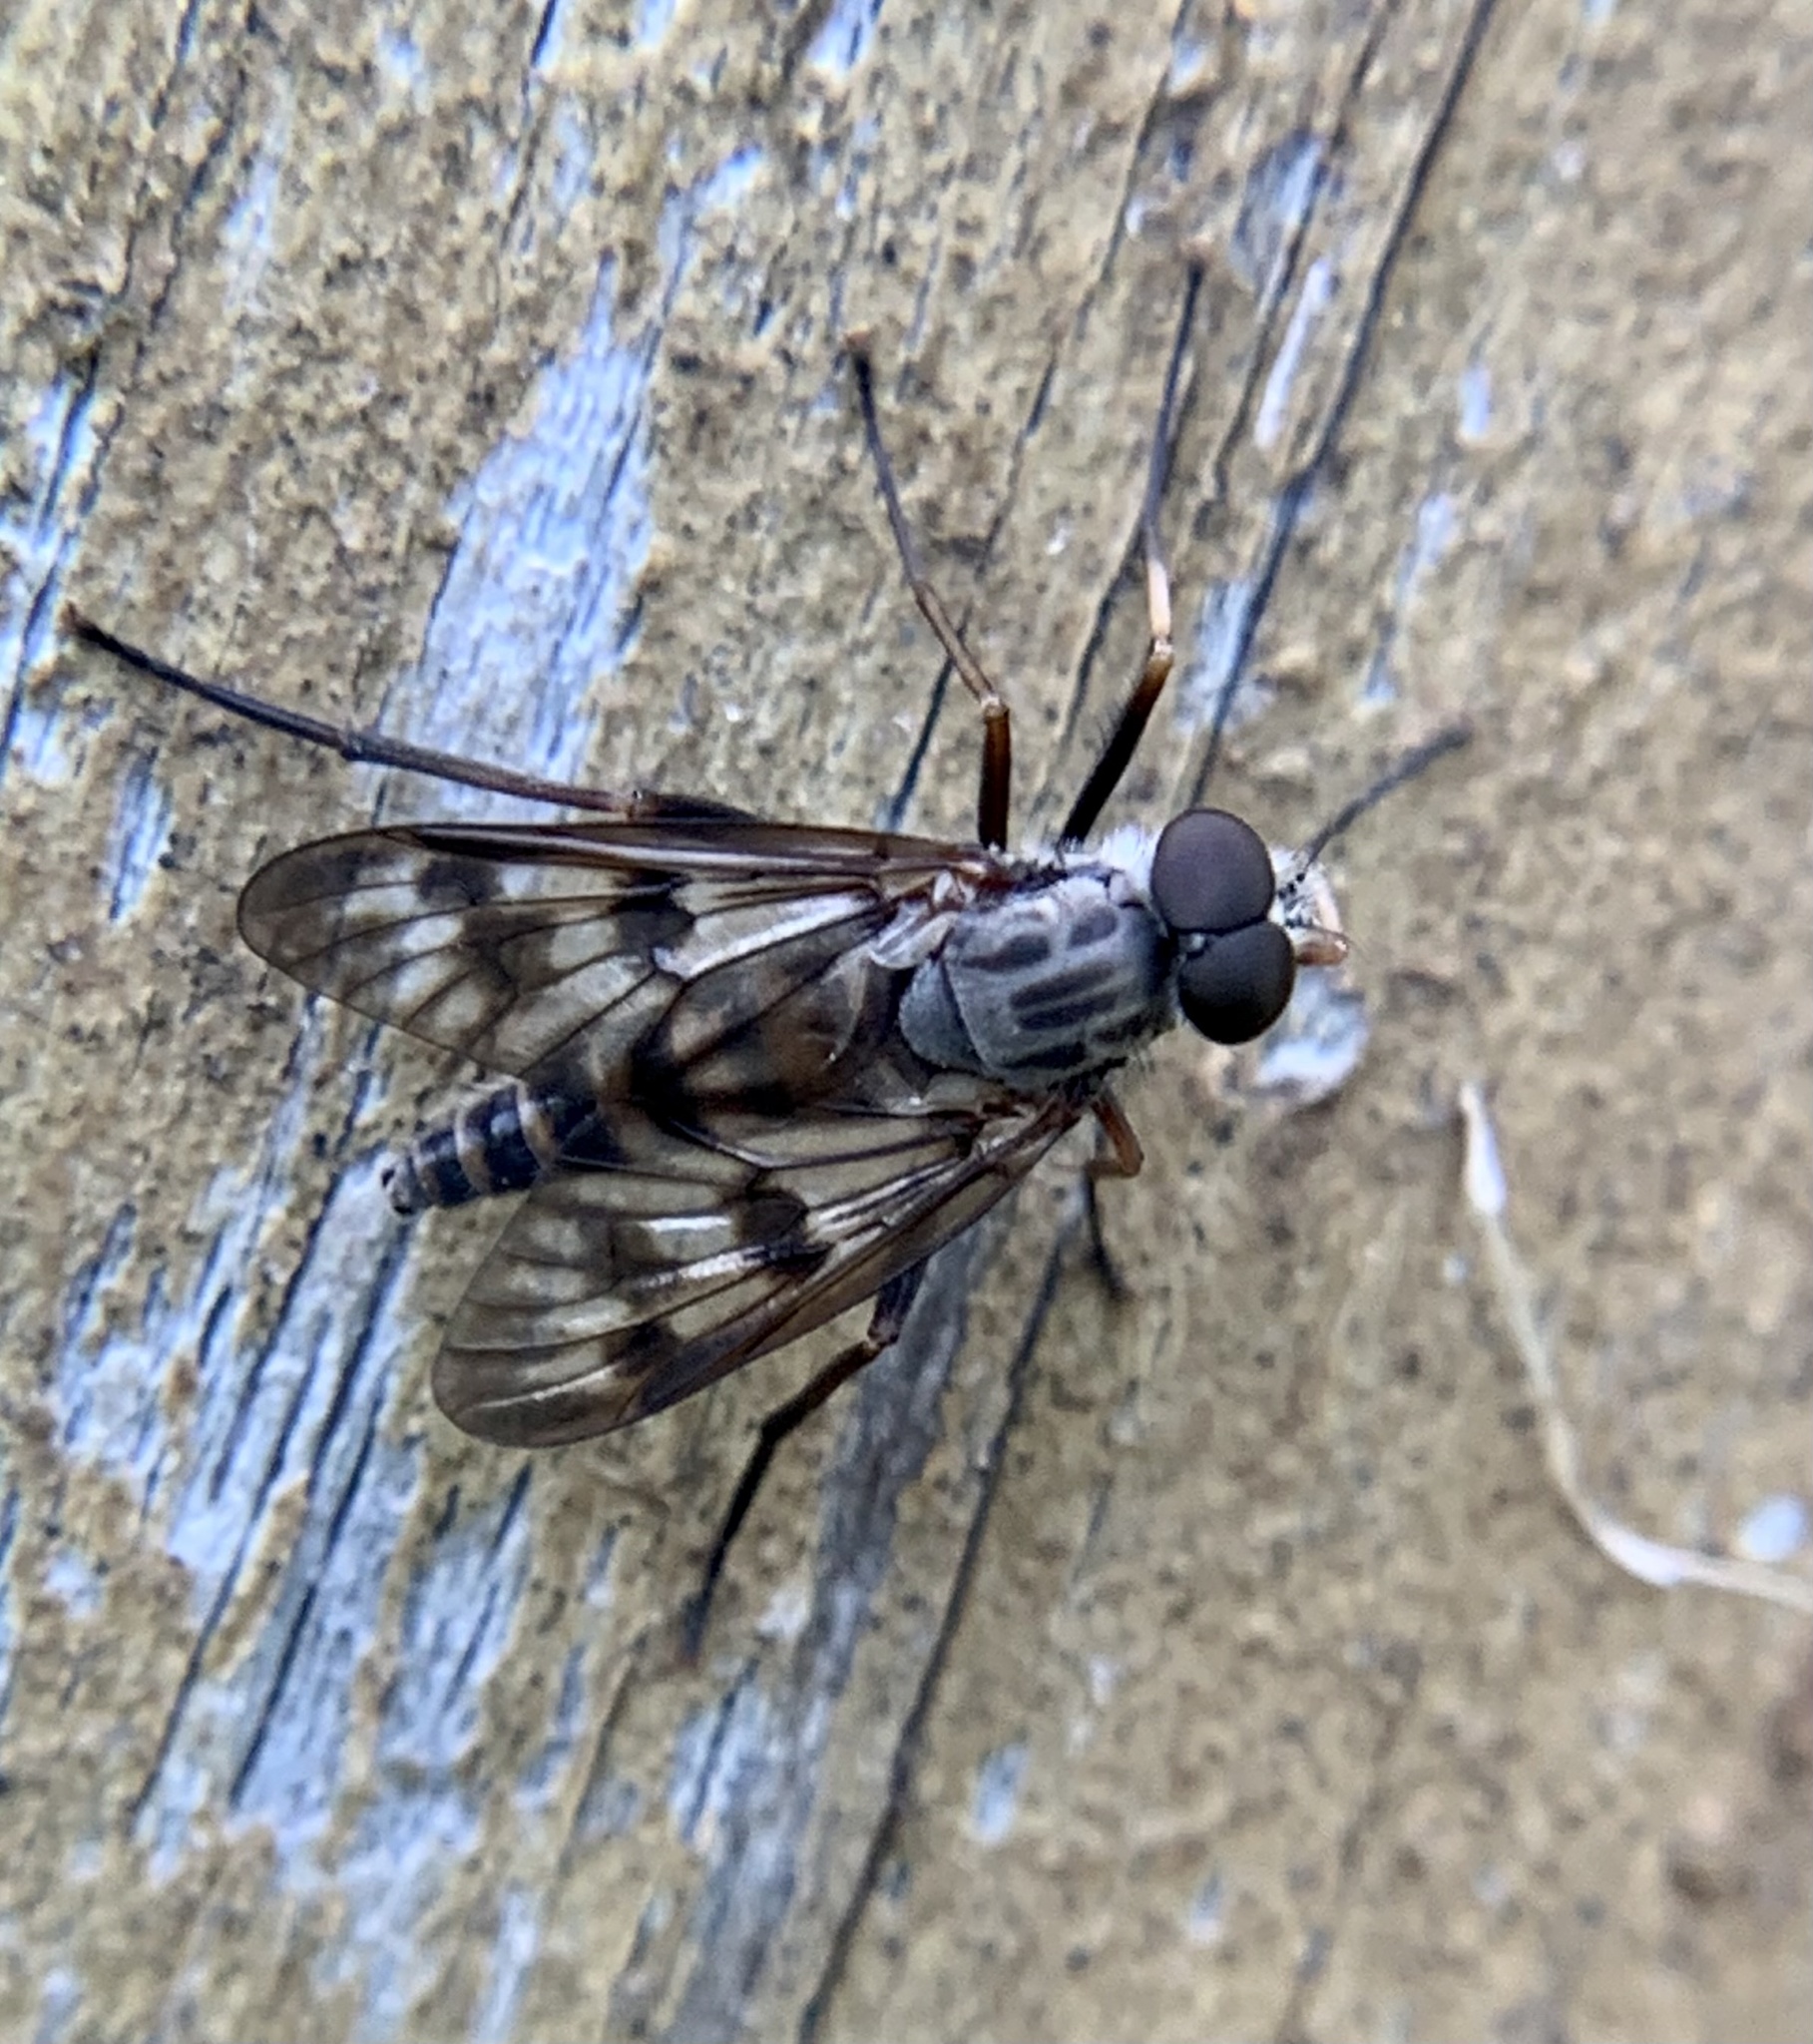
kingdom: Animalia
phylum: Arthropoda
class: Insecta
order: Diptera
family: Rhagionidae
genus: Rhagio
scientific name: Rhagio mystaceus
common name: Common snipe fly
